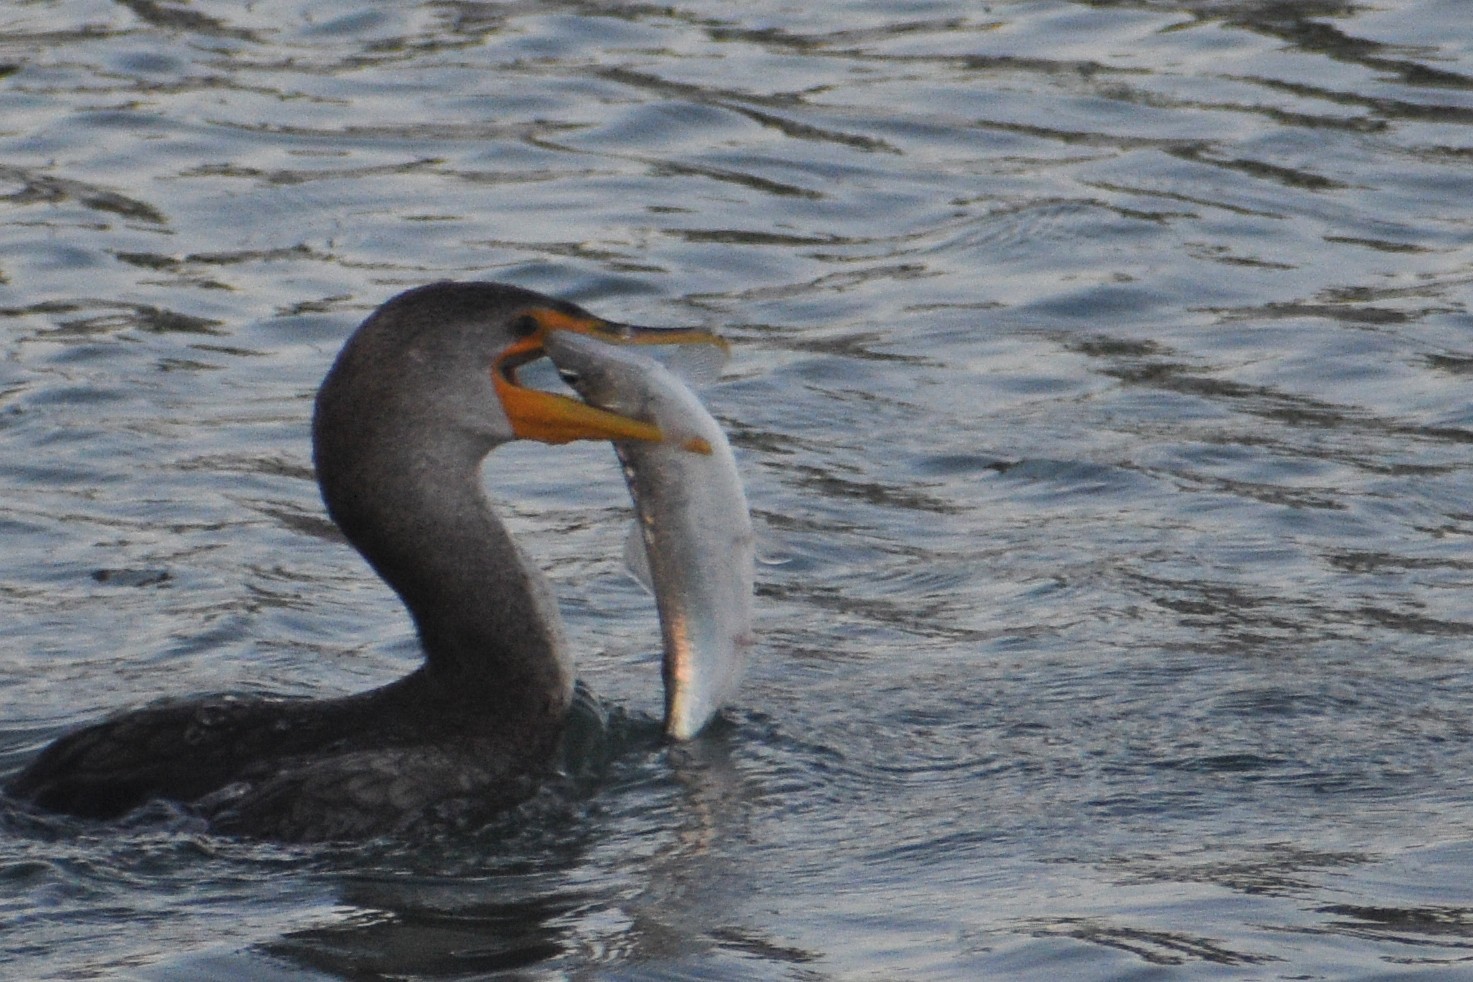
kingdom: Animalia
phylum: Chordata
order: Clupeiformes
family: Clupeidae
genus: Clupea
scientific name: Clupea pallasii
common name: Pacific herring
